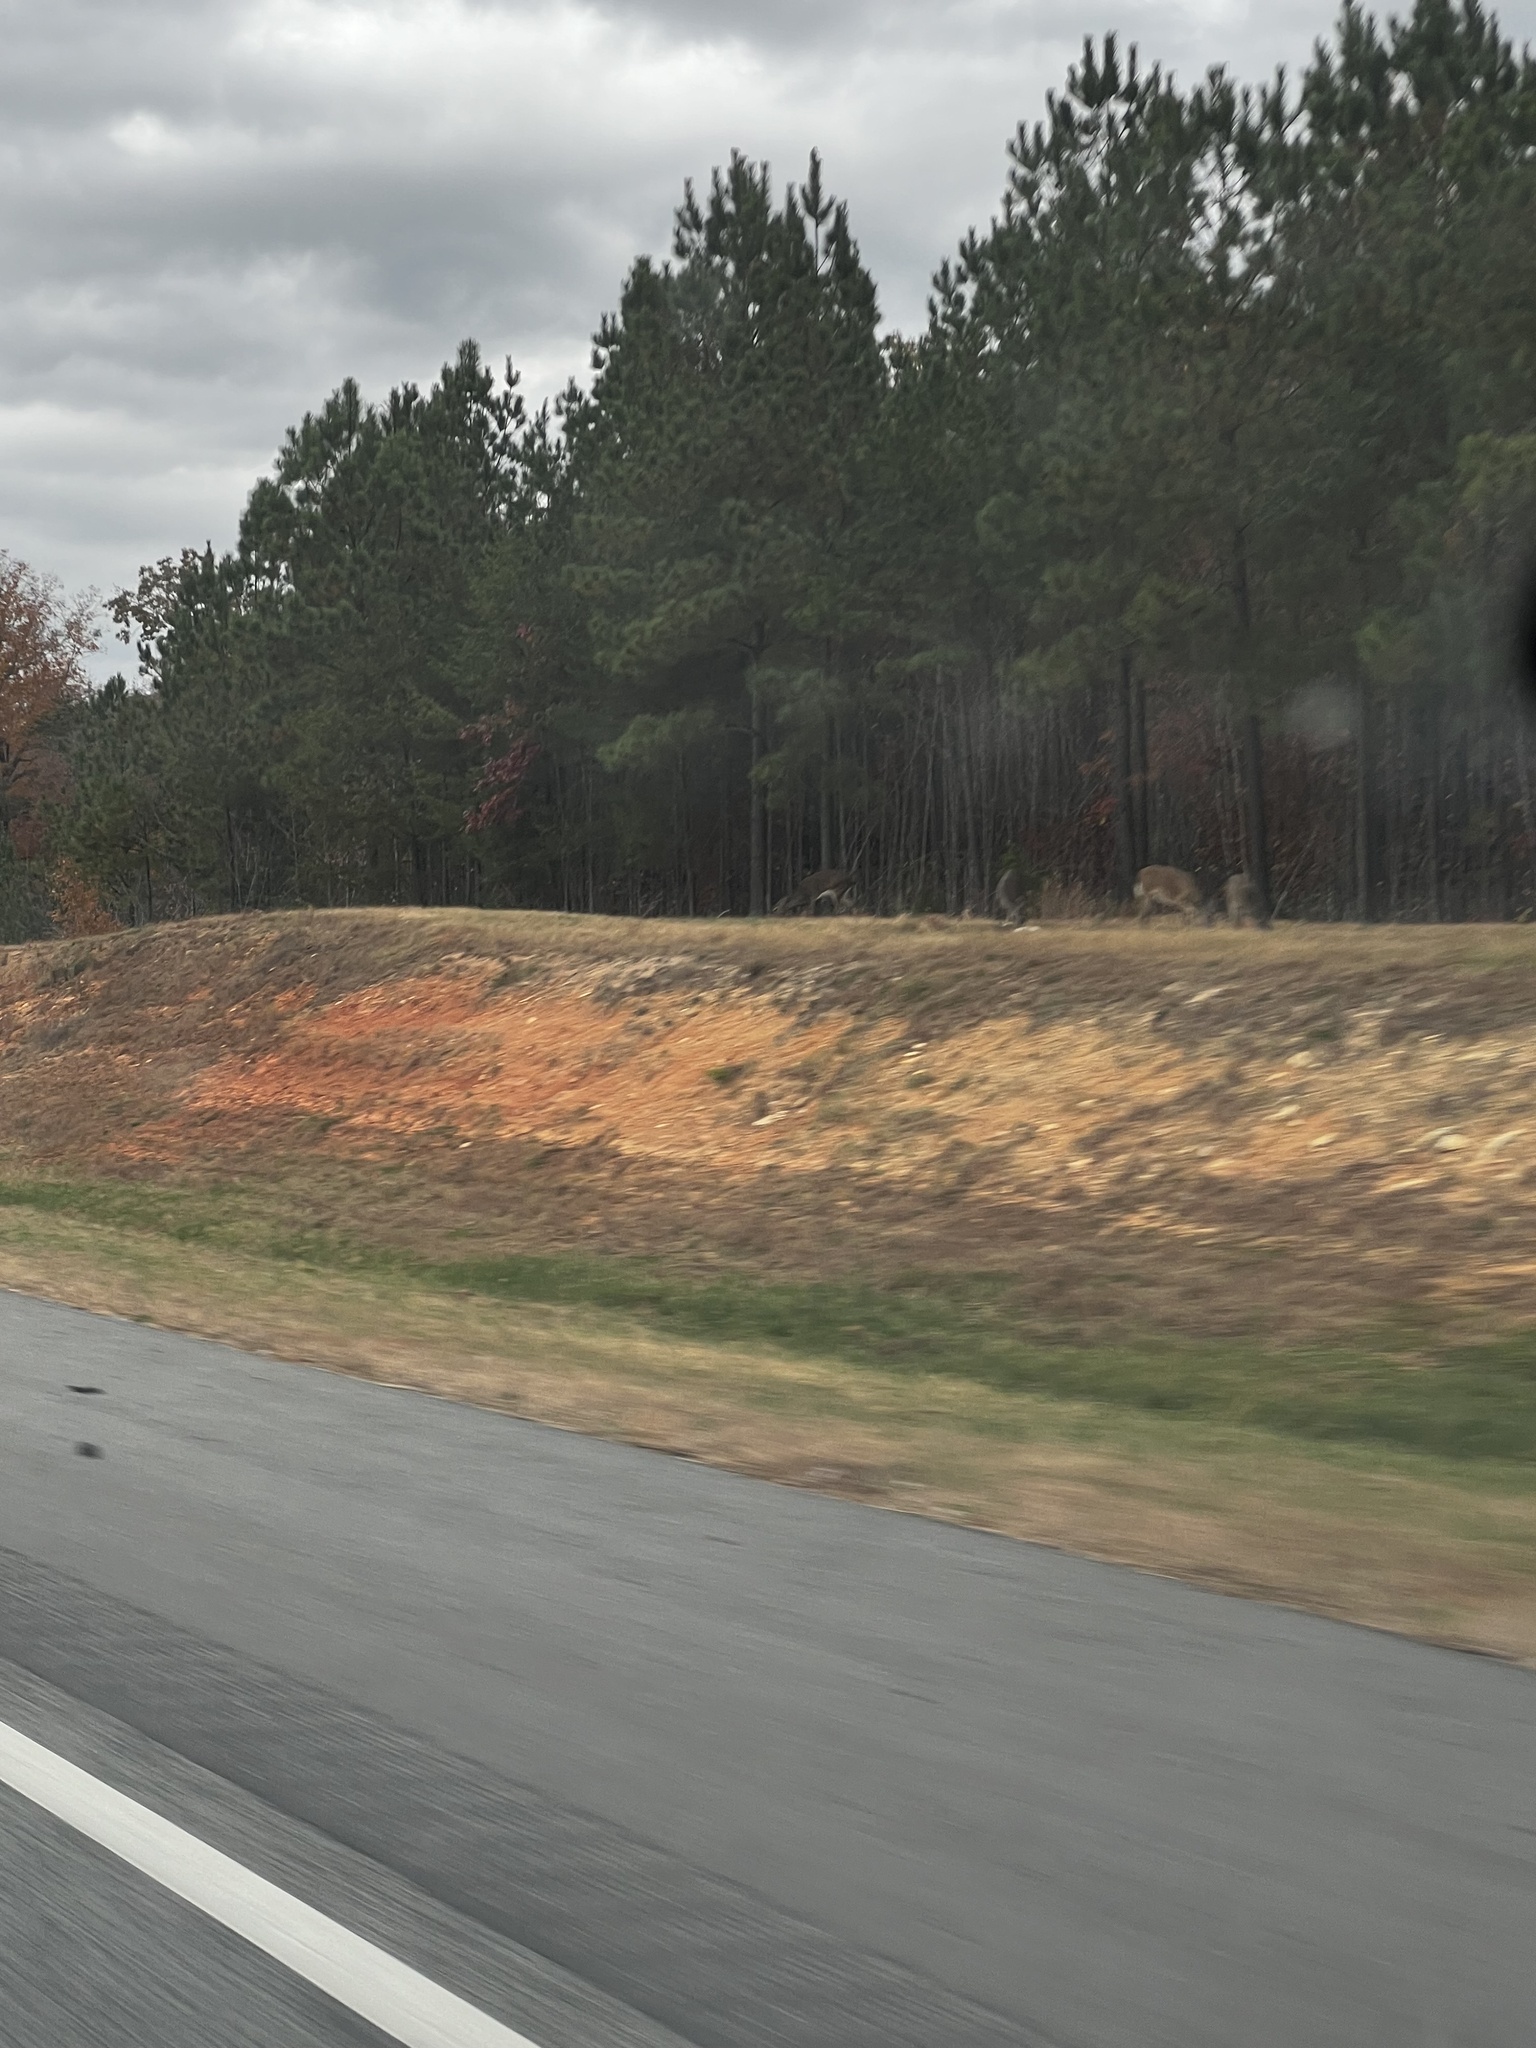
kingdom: Animalia
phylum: Chordata
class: Mammalia
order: Artiodactyla
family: Cervidae
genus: Odocoileus
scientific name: Odocoileus virginianus
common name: White-tailed deer
